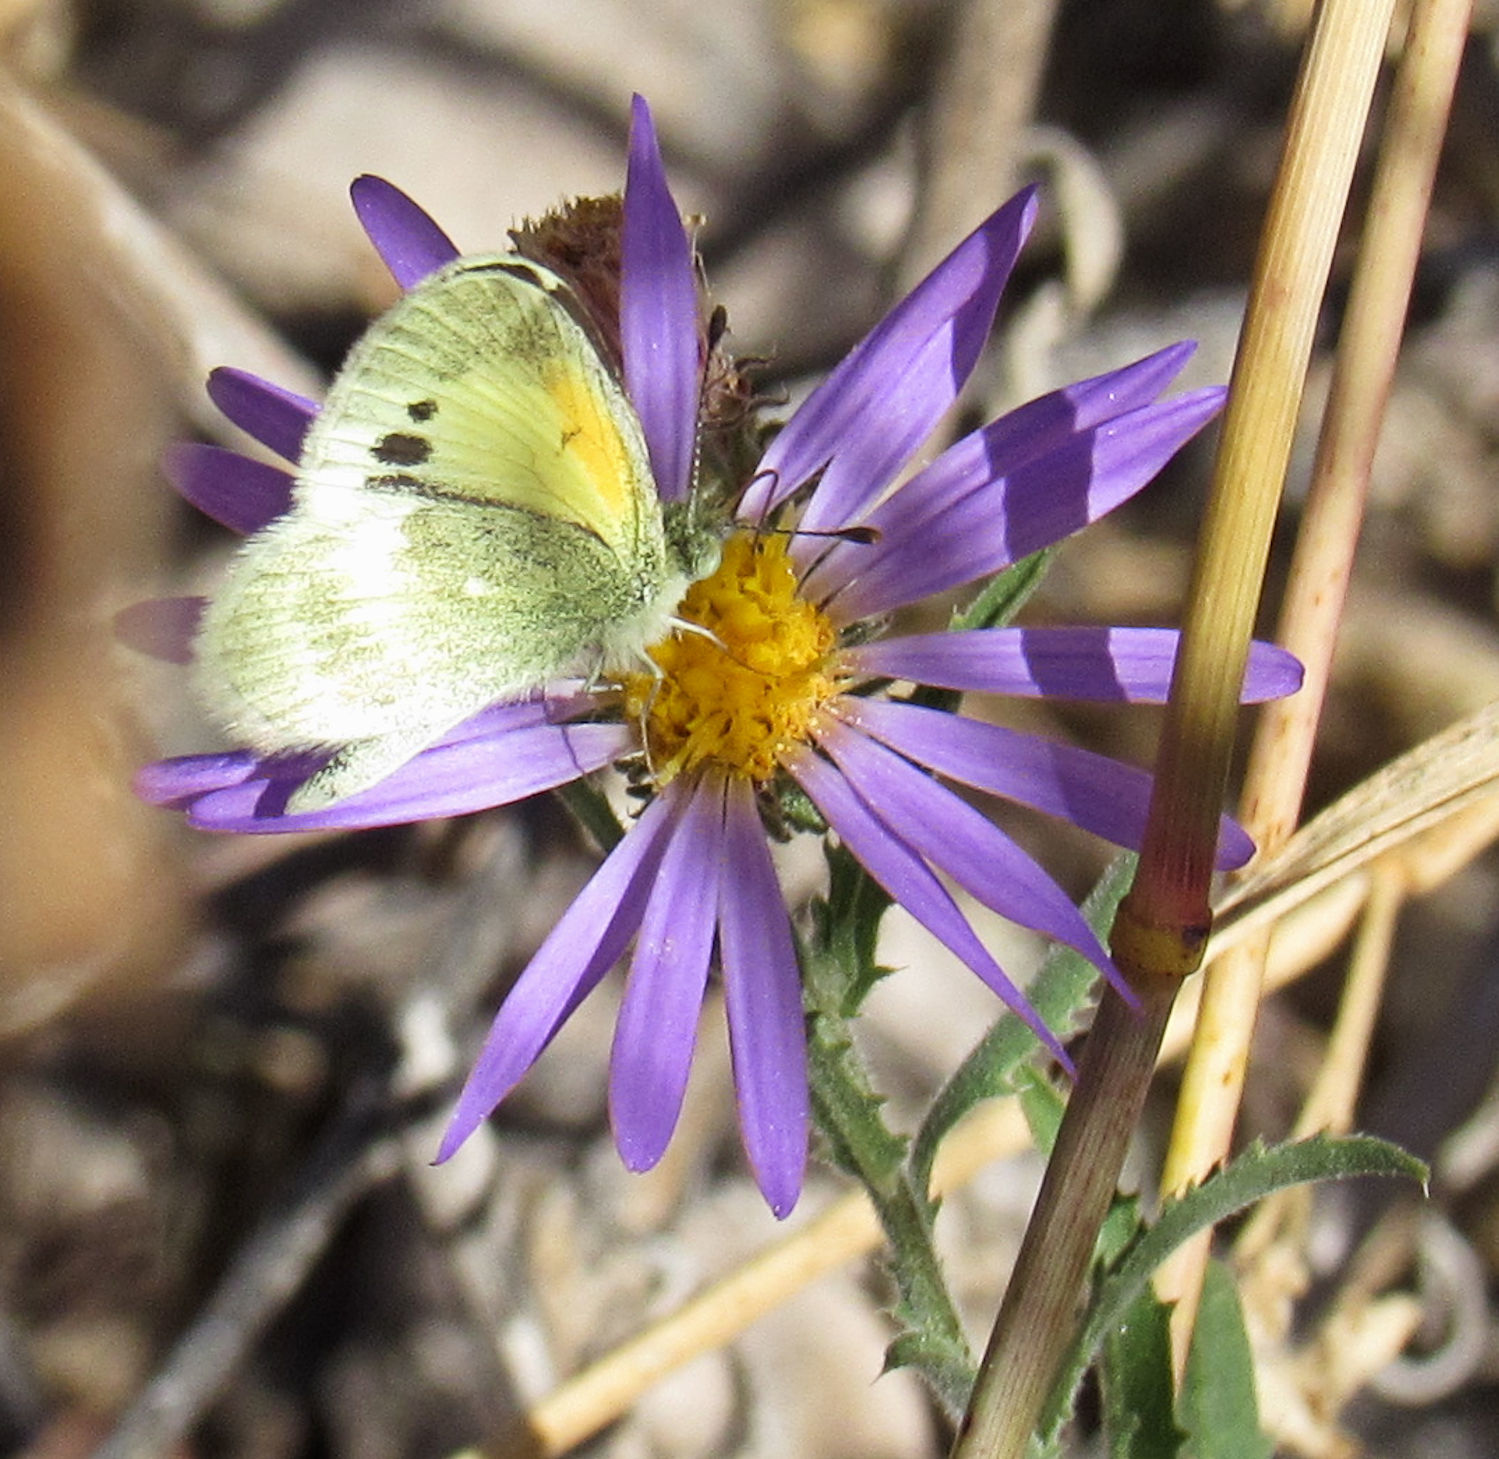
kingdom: Animalia
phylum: Arthropoda
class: Insecta
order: Lepidoptera
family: Pieridae
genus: Nathalis
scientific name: Nathalis iole
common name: Dainty sulphur
